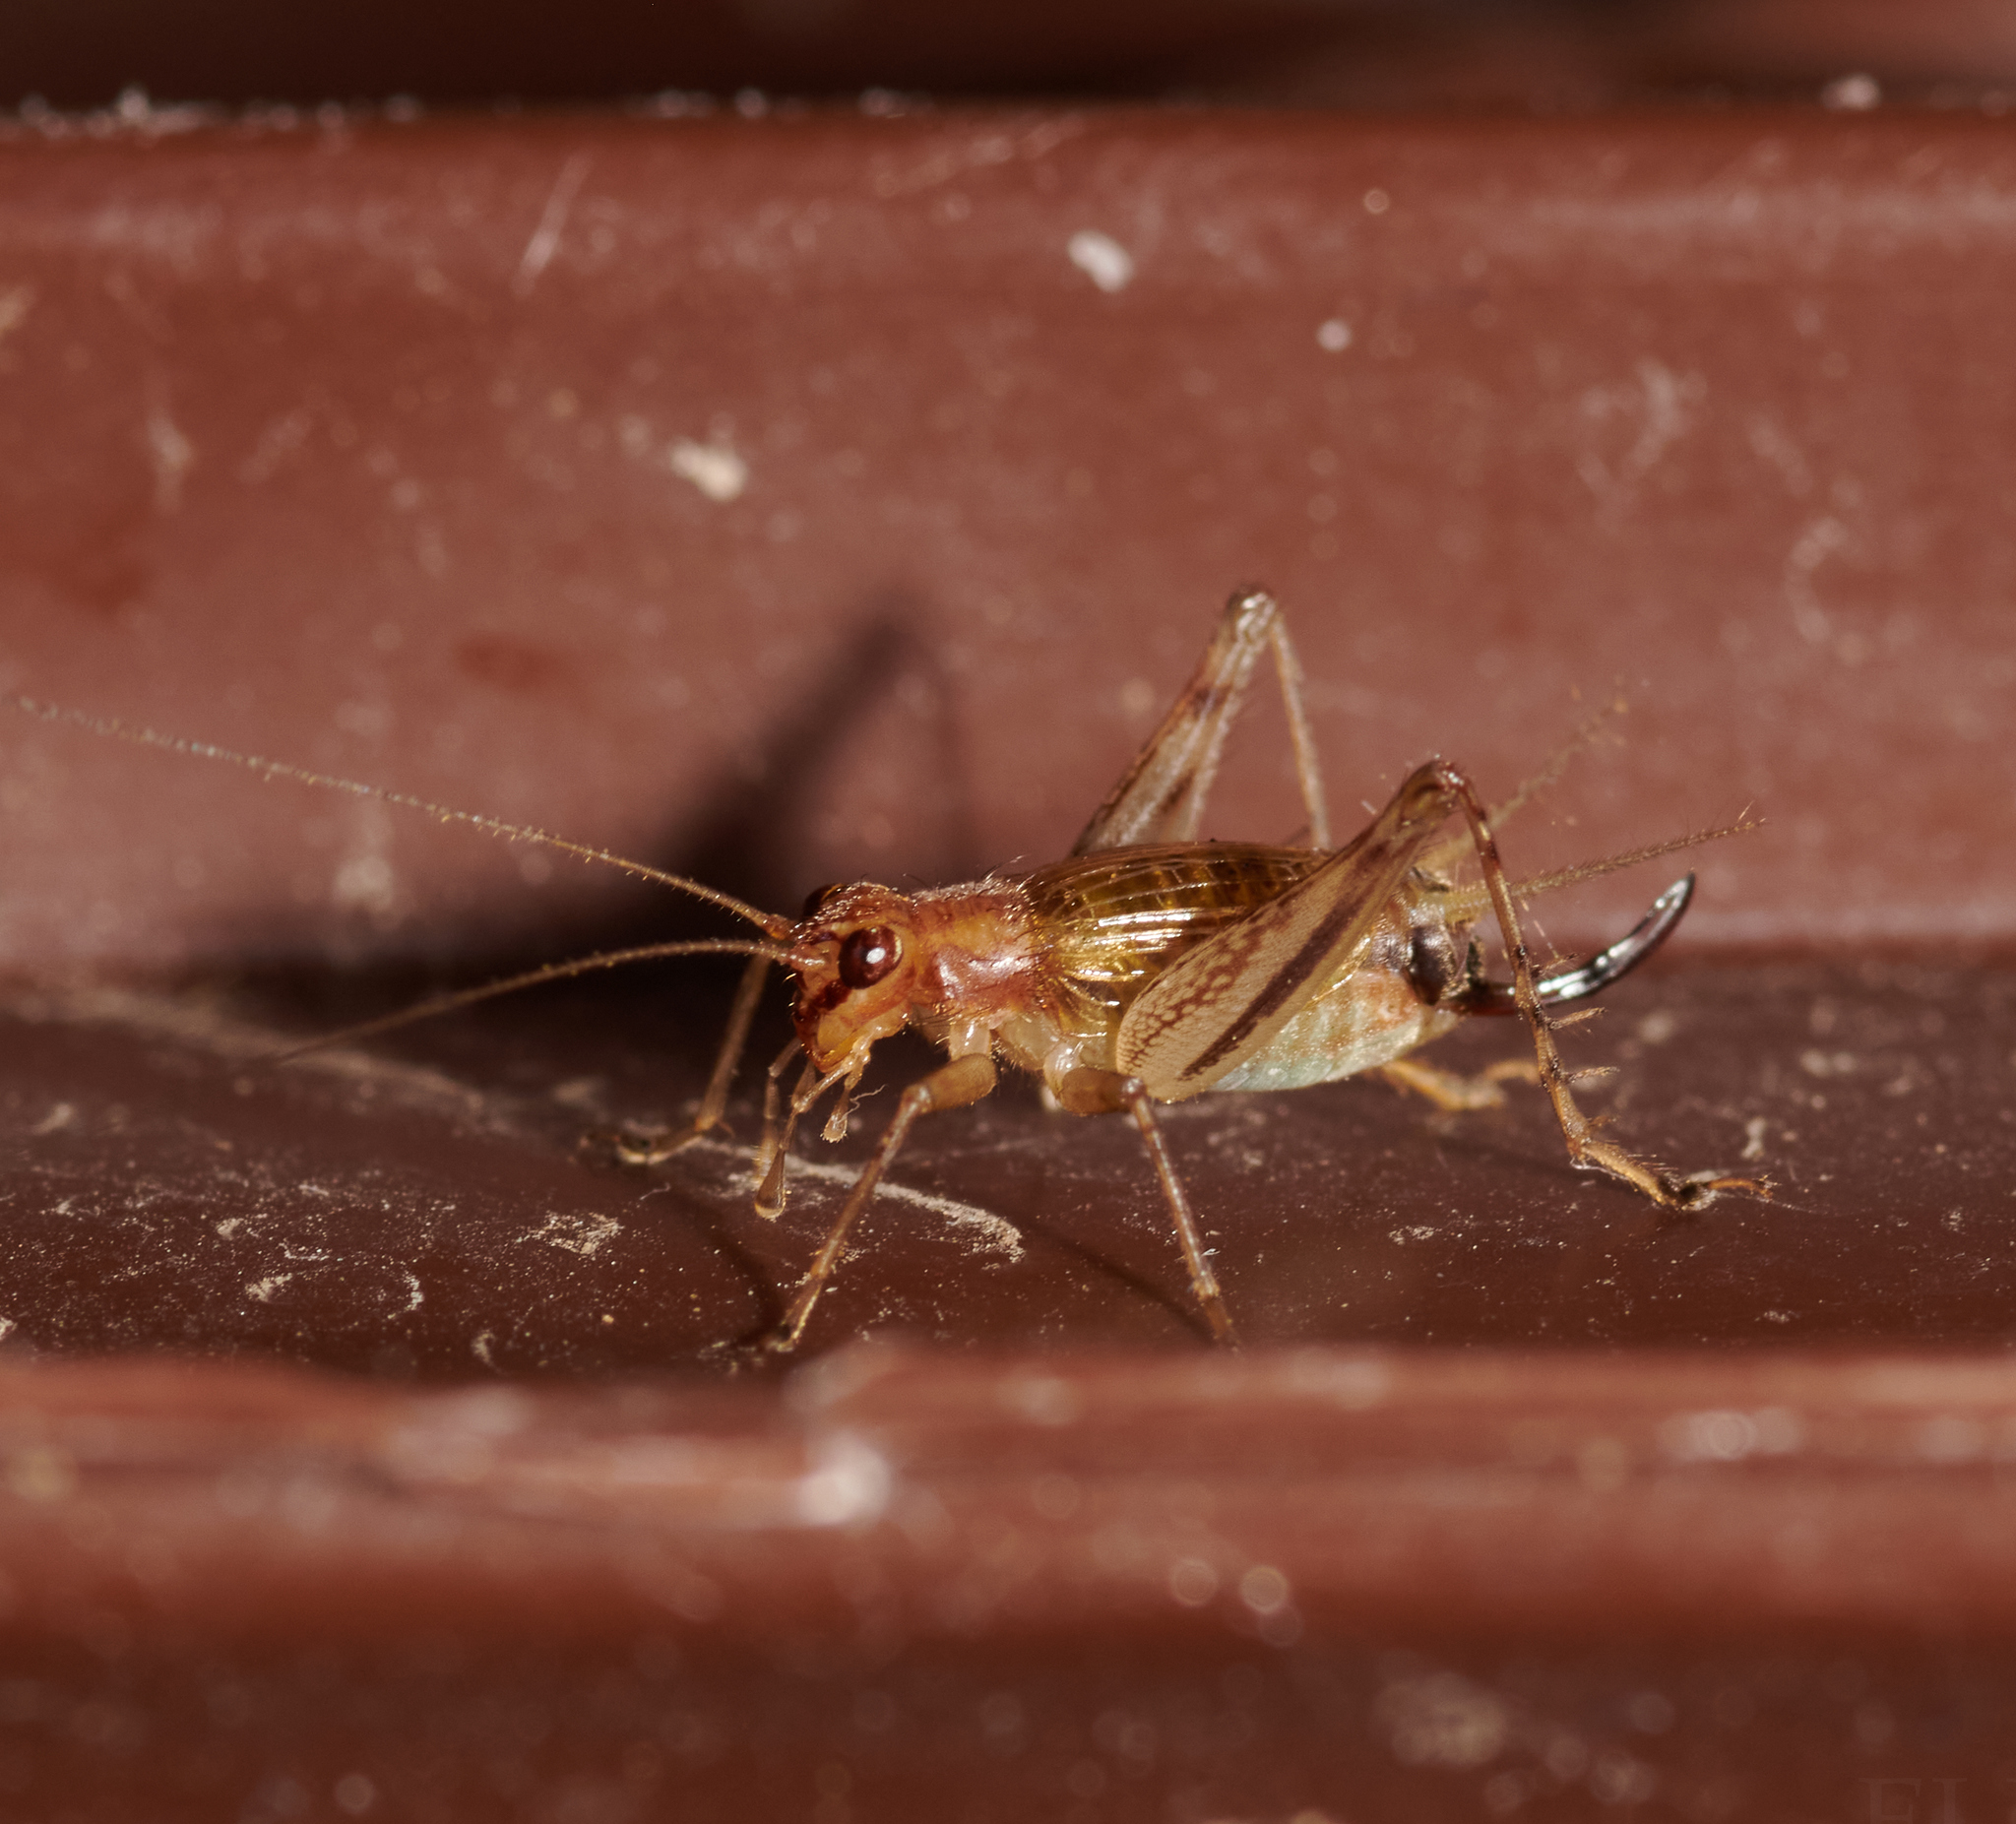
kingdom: Animalia
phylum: Arthropoda
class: Insecta
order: Orthoptera
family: Trigonidiidae
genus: Anaxipha
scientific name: Anaxipha exigua
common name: Say's bush cricket
